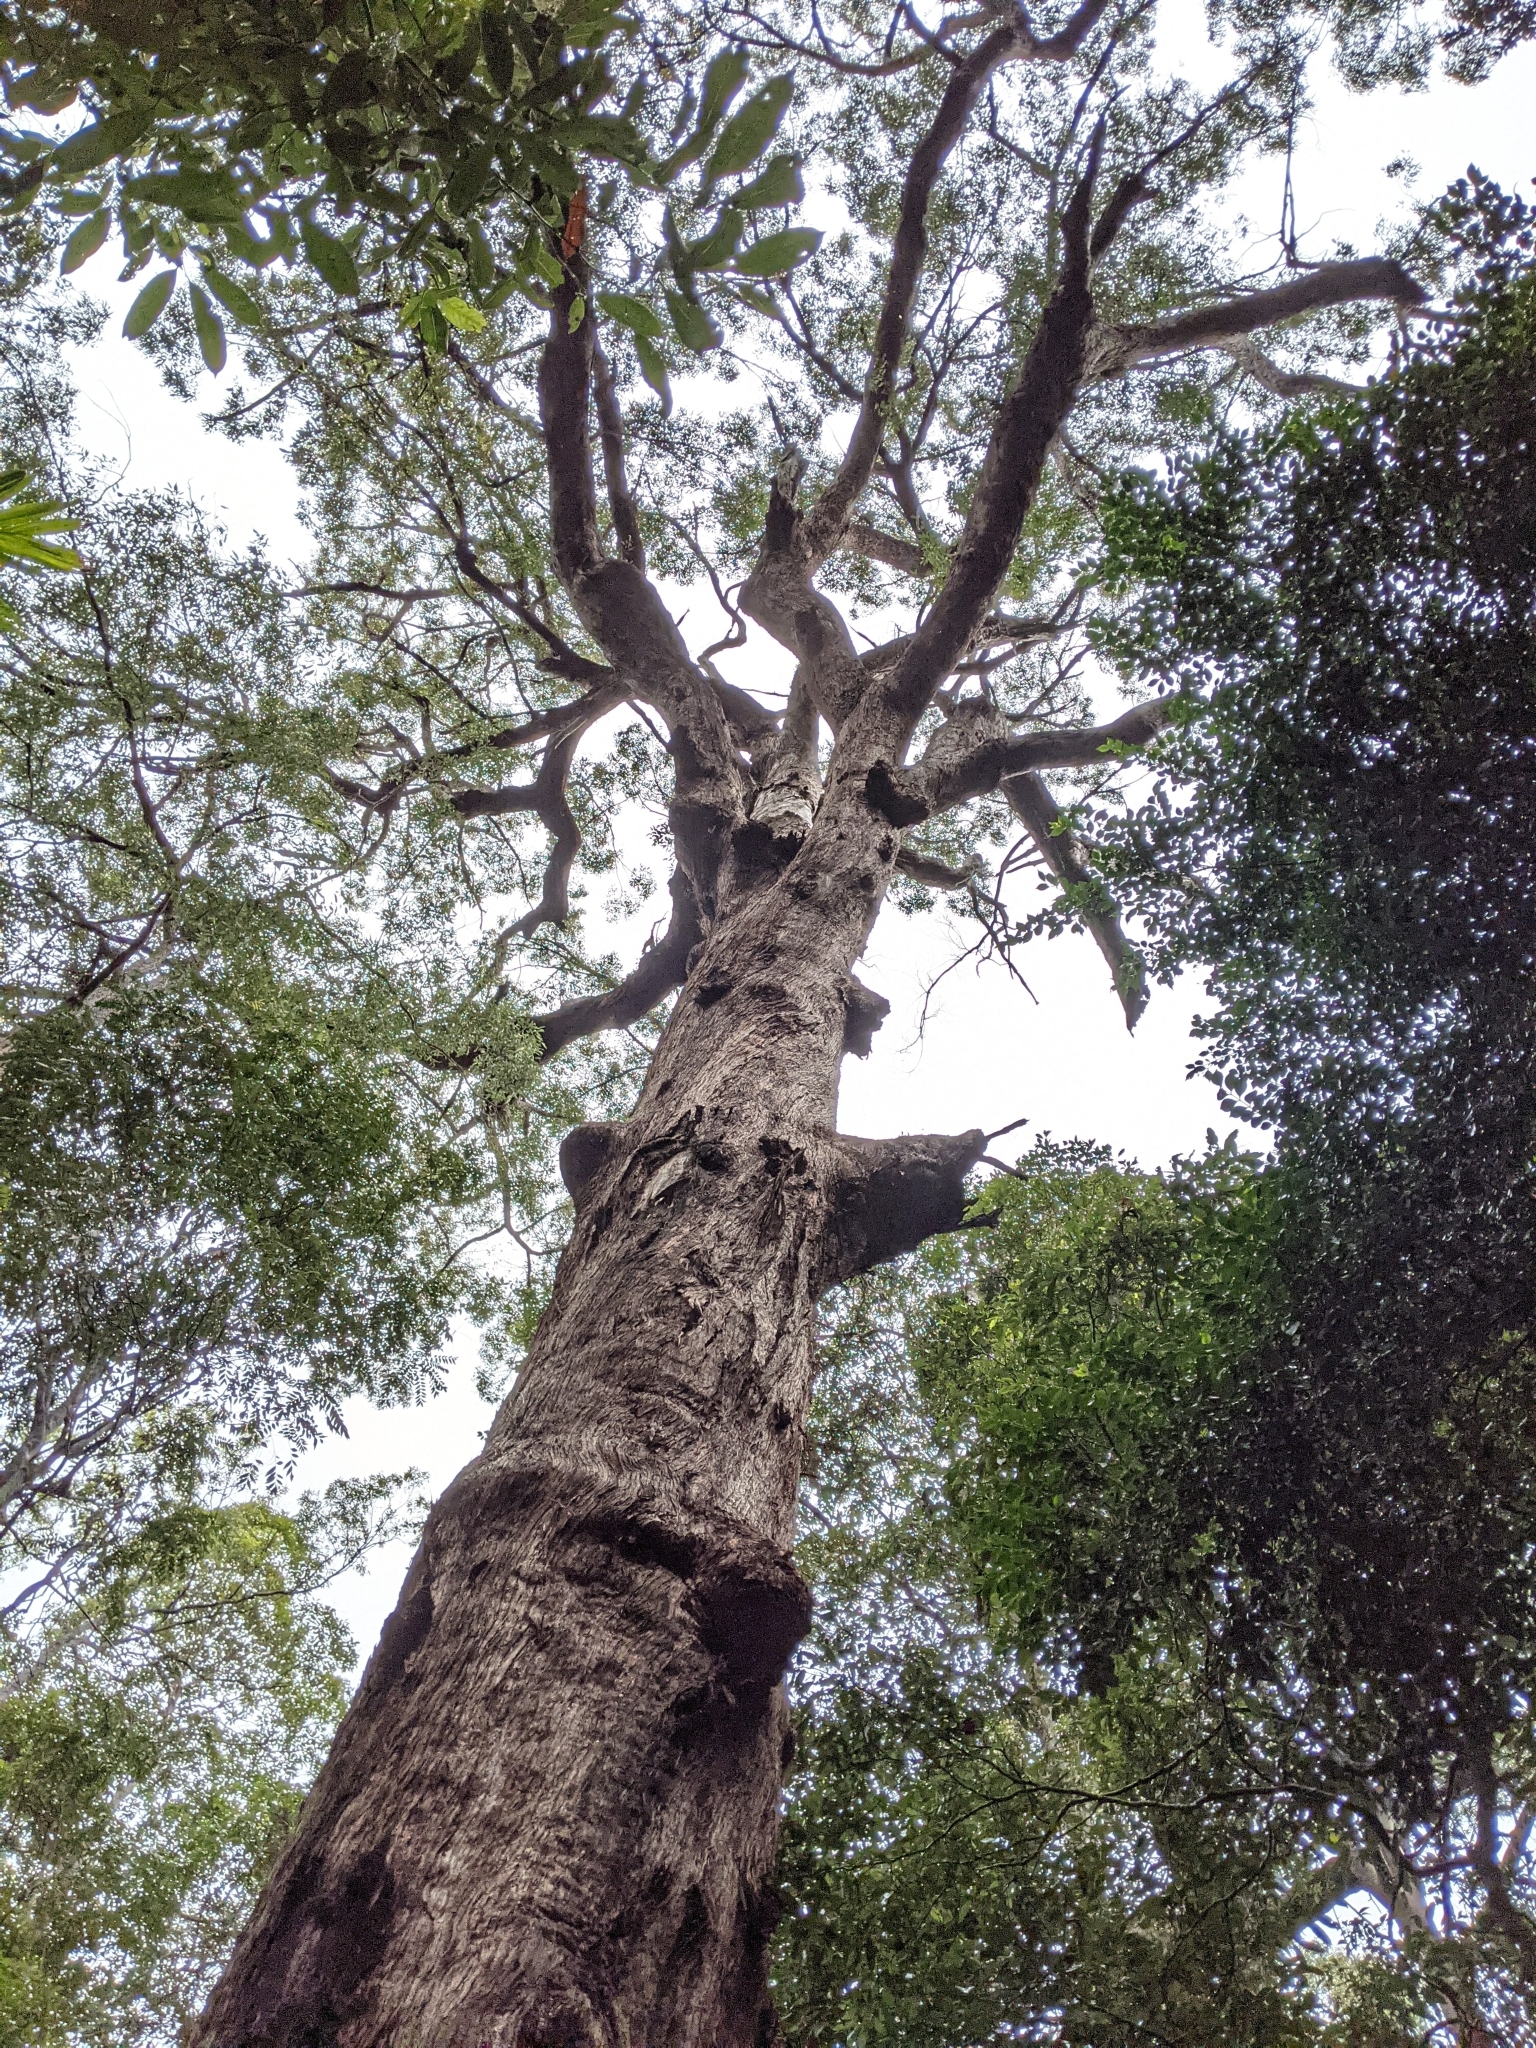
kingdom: Plantae
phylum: Tracheophyta
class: Magnoliopsida
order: Myrtales
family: Myrtaceae
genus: Eucalyptus
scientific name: Eucalyptus microcorys
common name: Tallowwood
